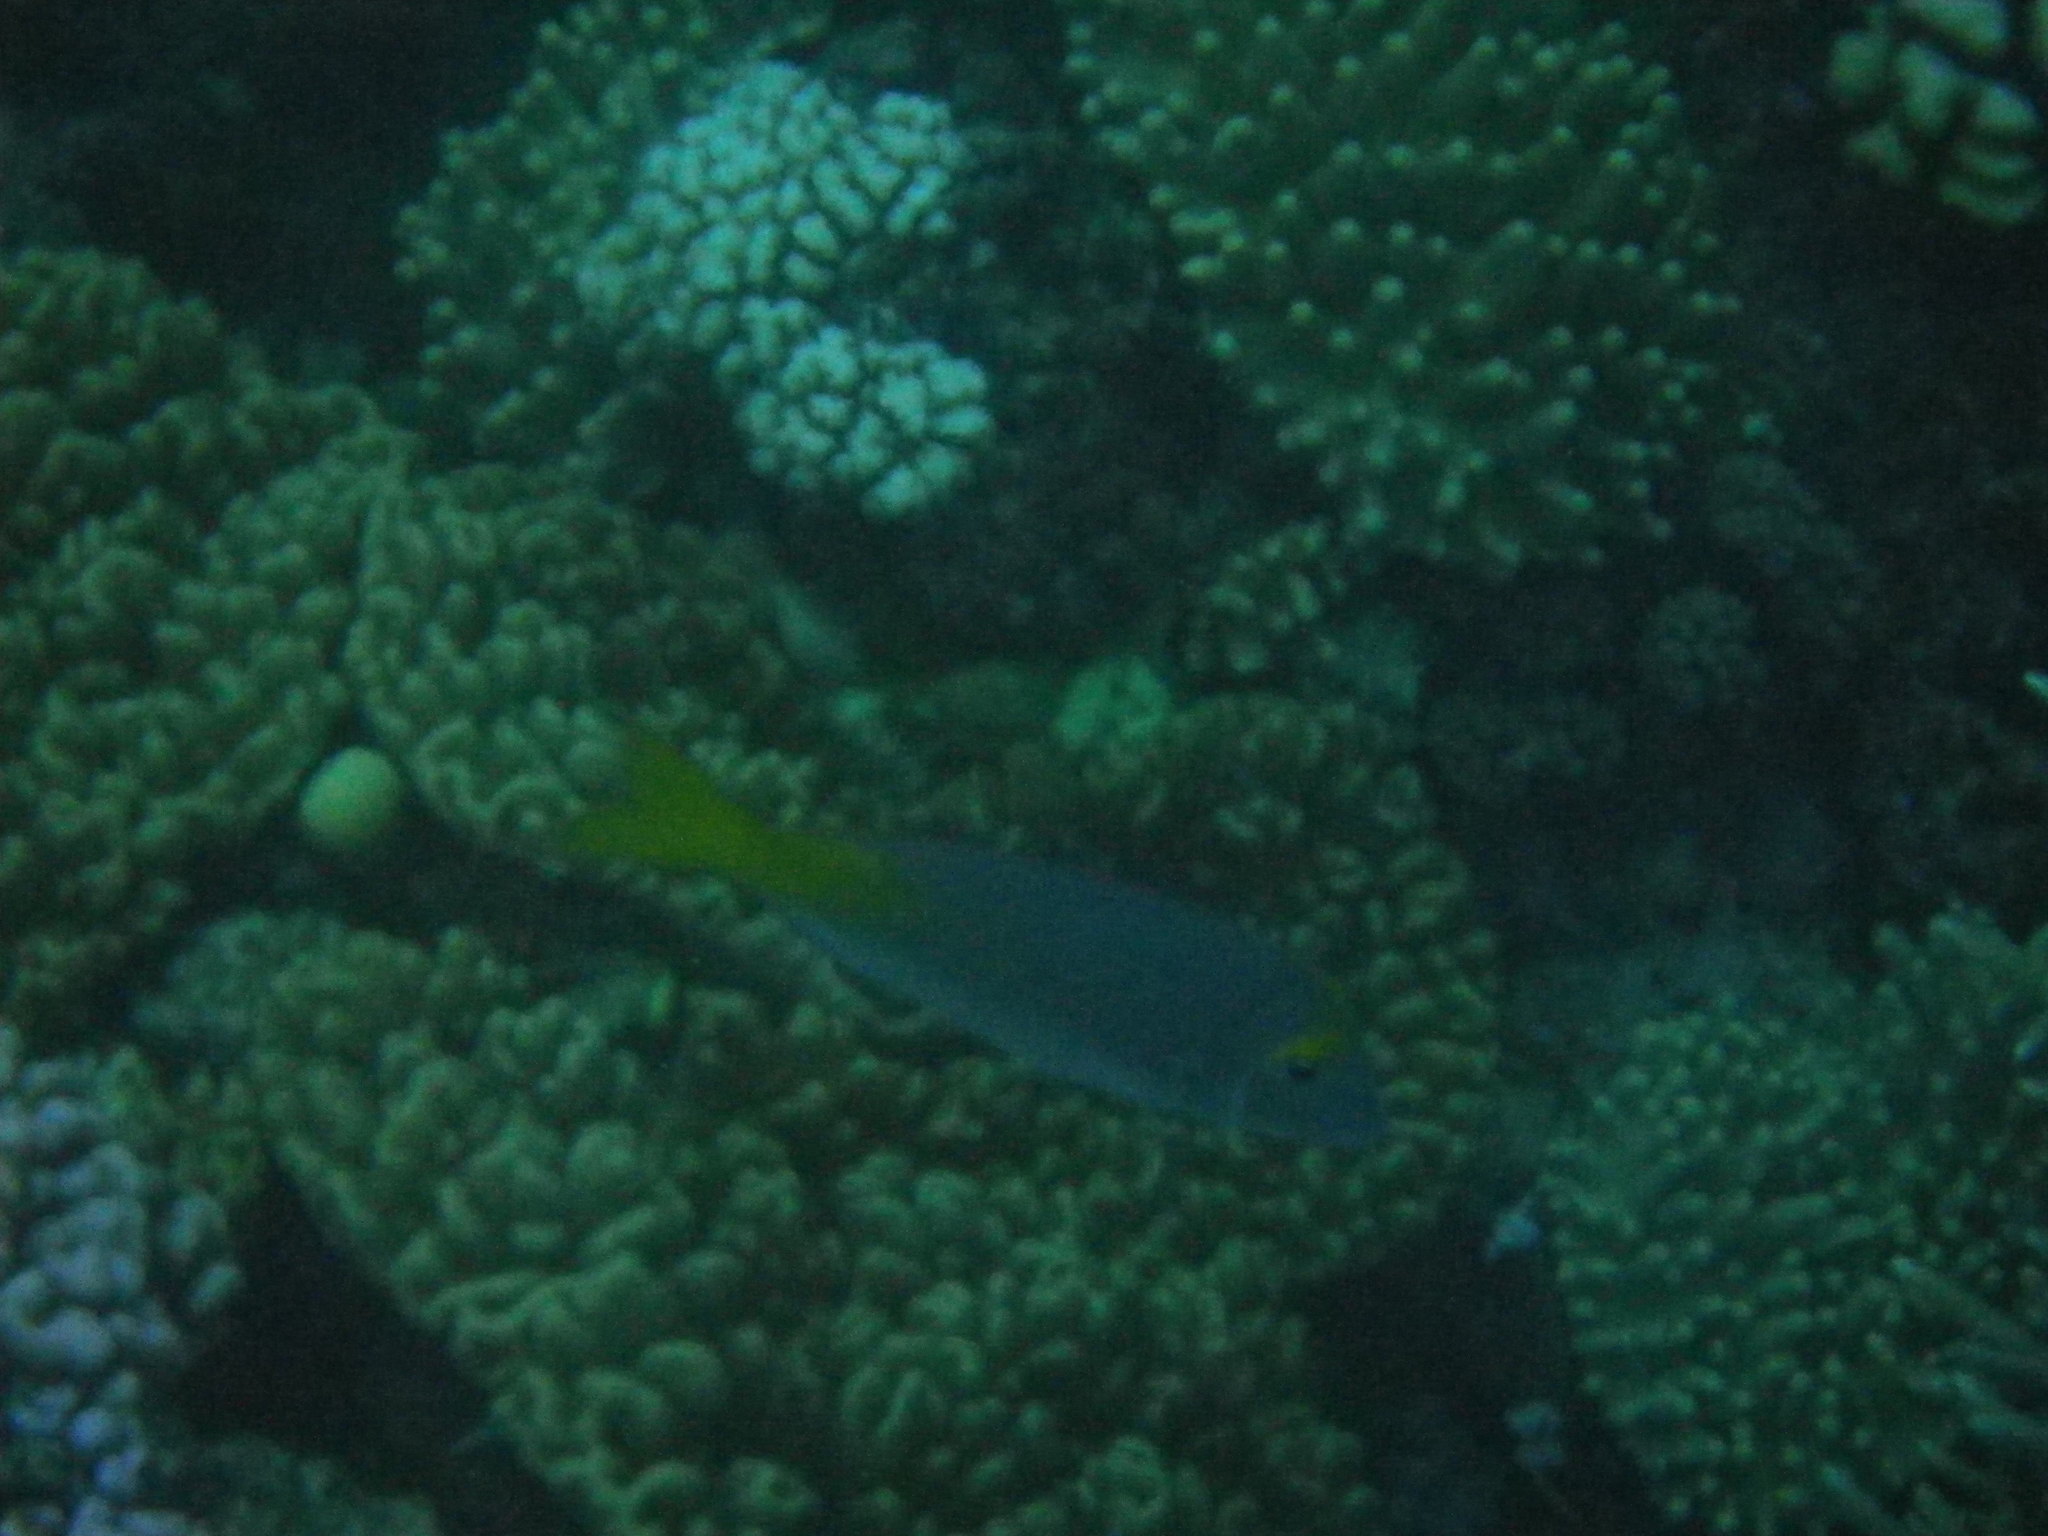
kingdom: Animalia
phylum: Chordata
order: Perciformes
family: Lethrinidae
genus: Lethrinus
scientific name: Lethrinus atkinsoni
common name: Pacific yellowtail emperor
